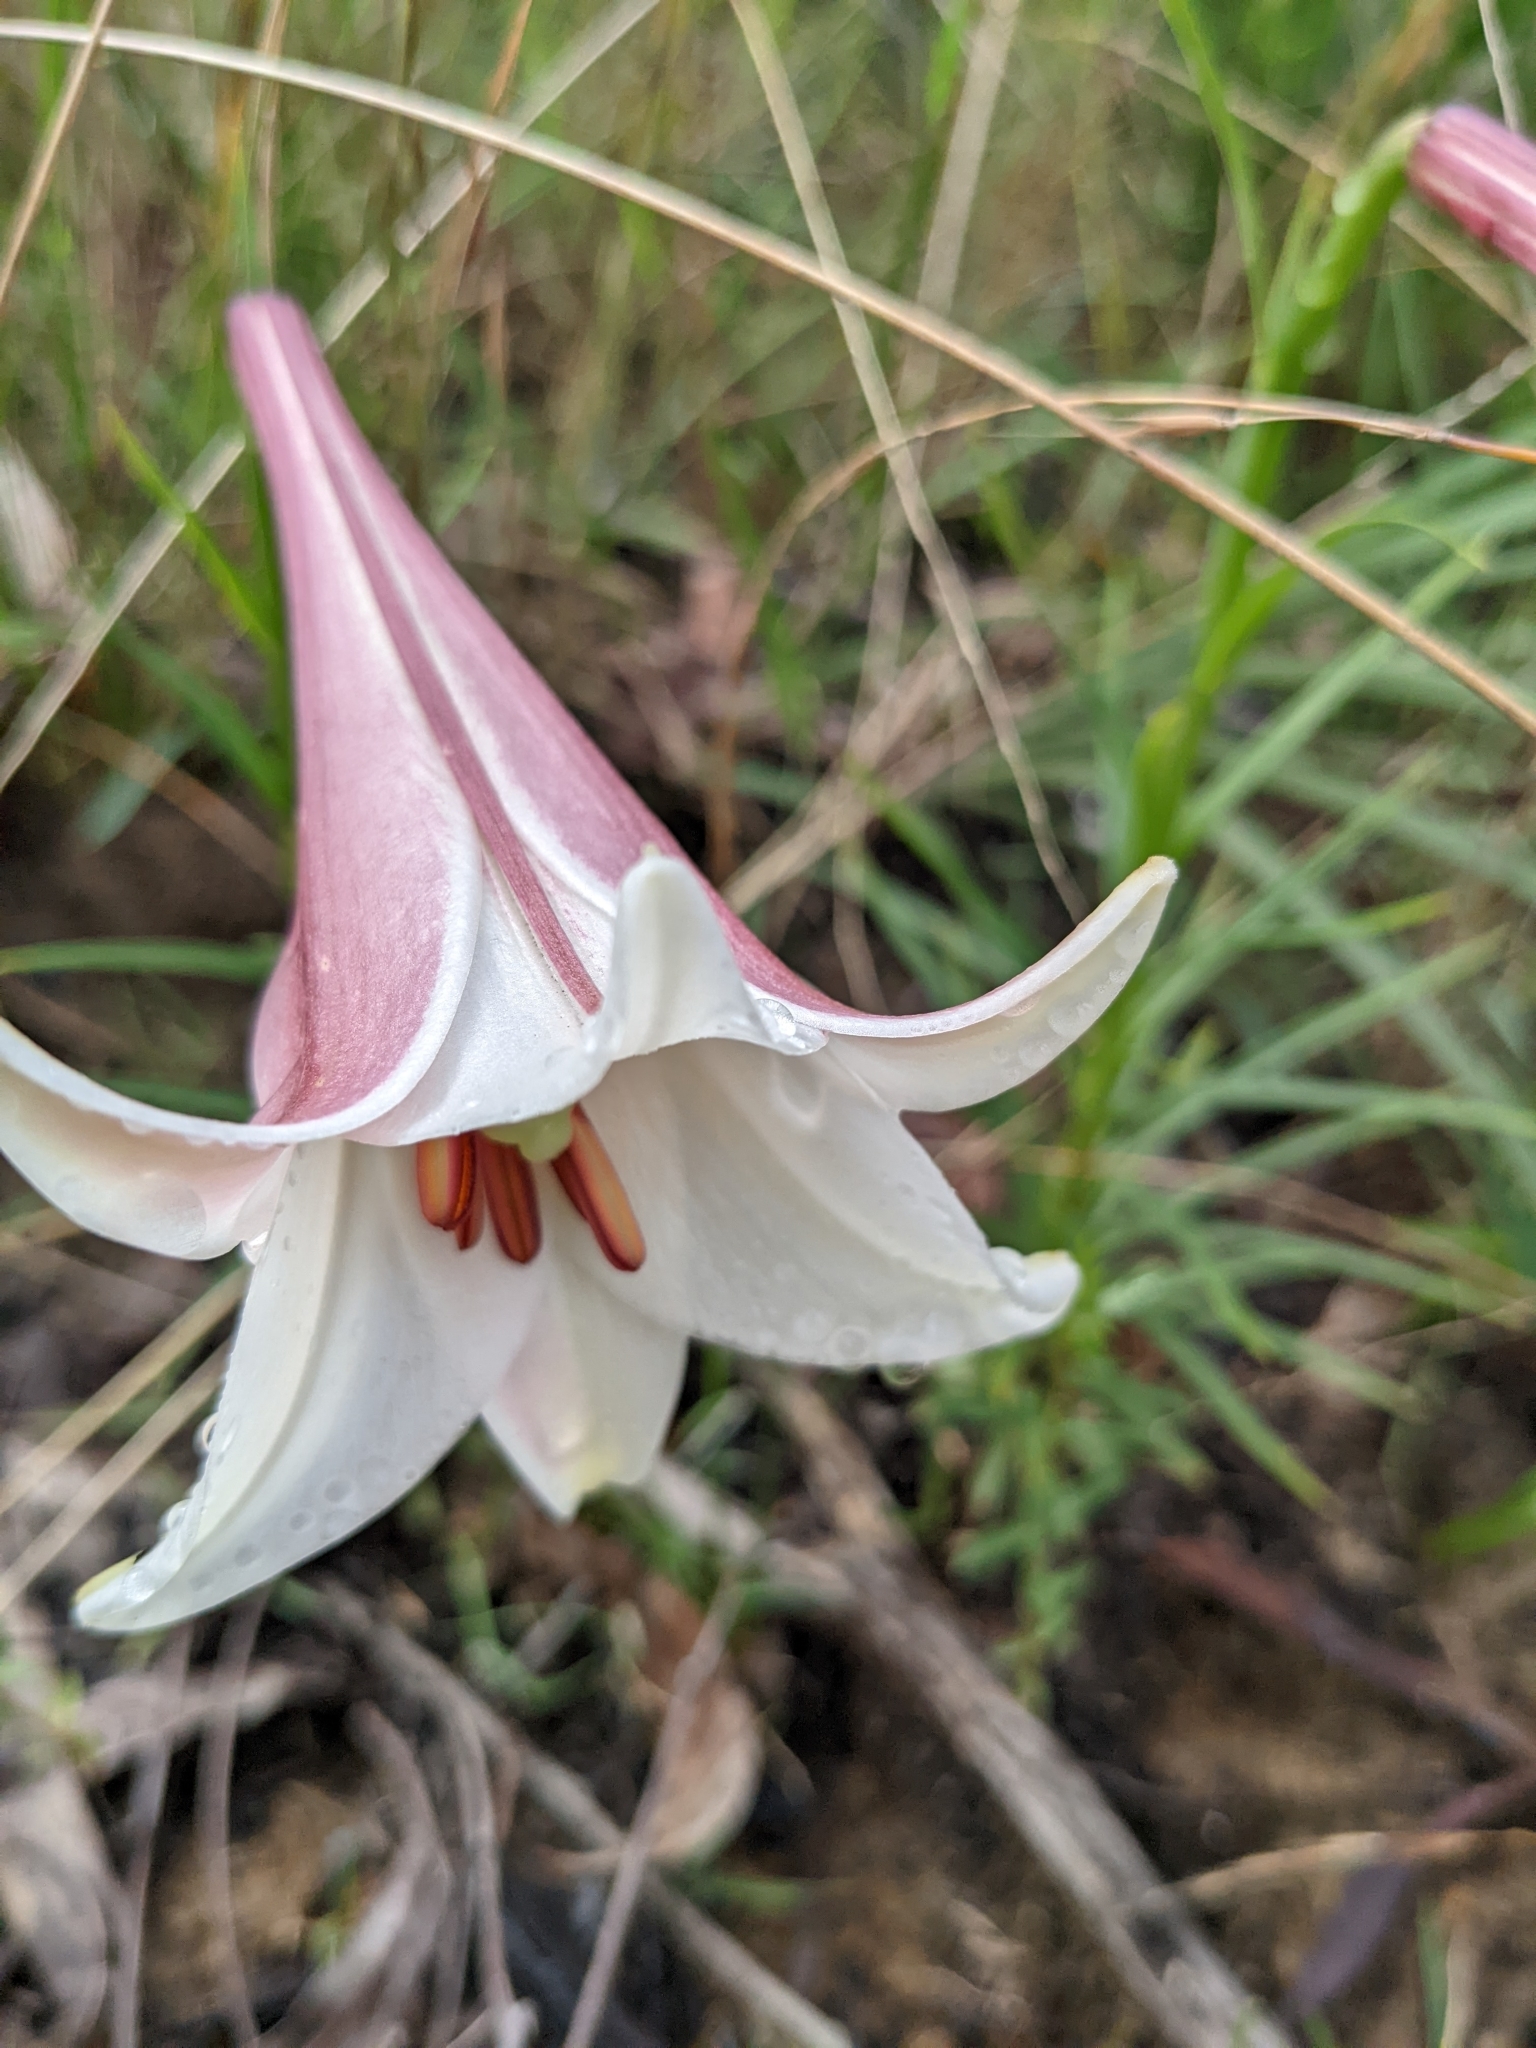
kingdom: Plantae
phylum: Tracheophyta
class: Liliopsida
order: Liliales
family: Liliaceae
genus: Lilium
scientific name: Lilium formosanum
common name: Formosa lily
